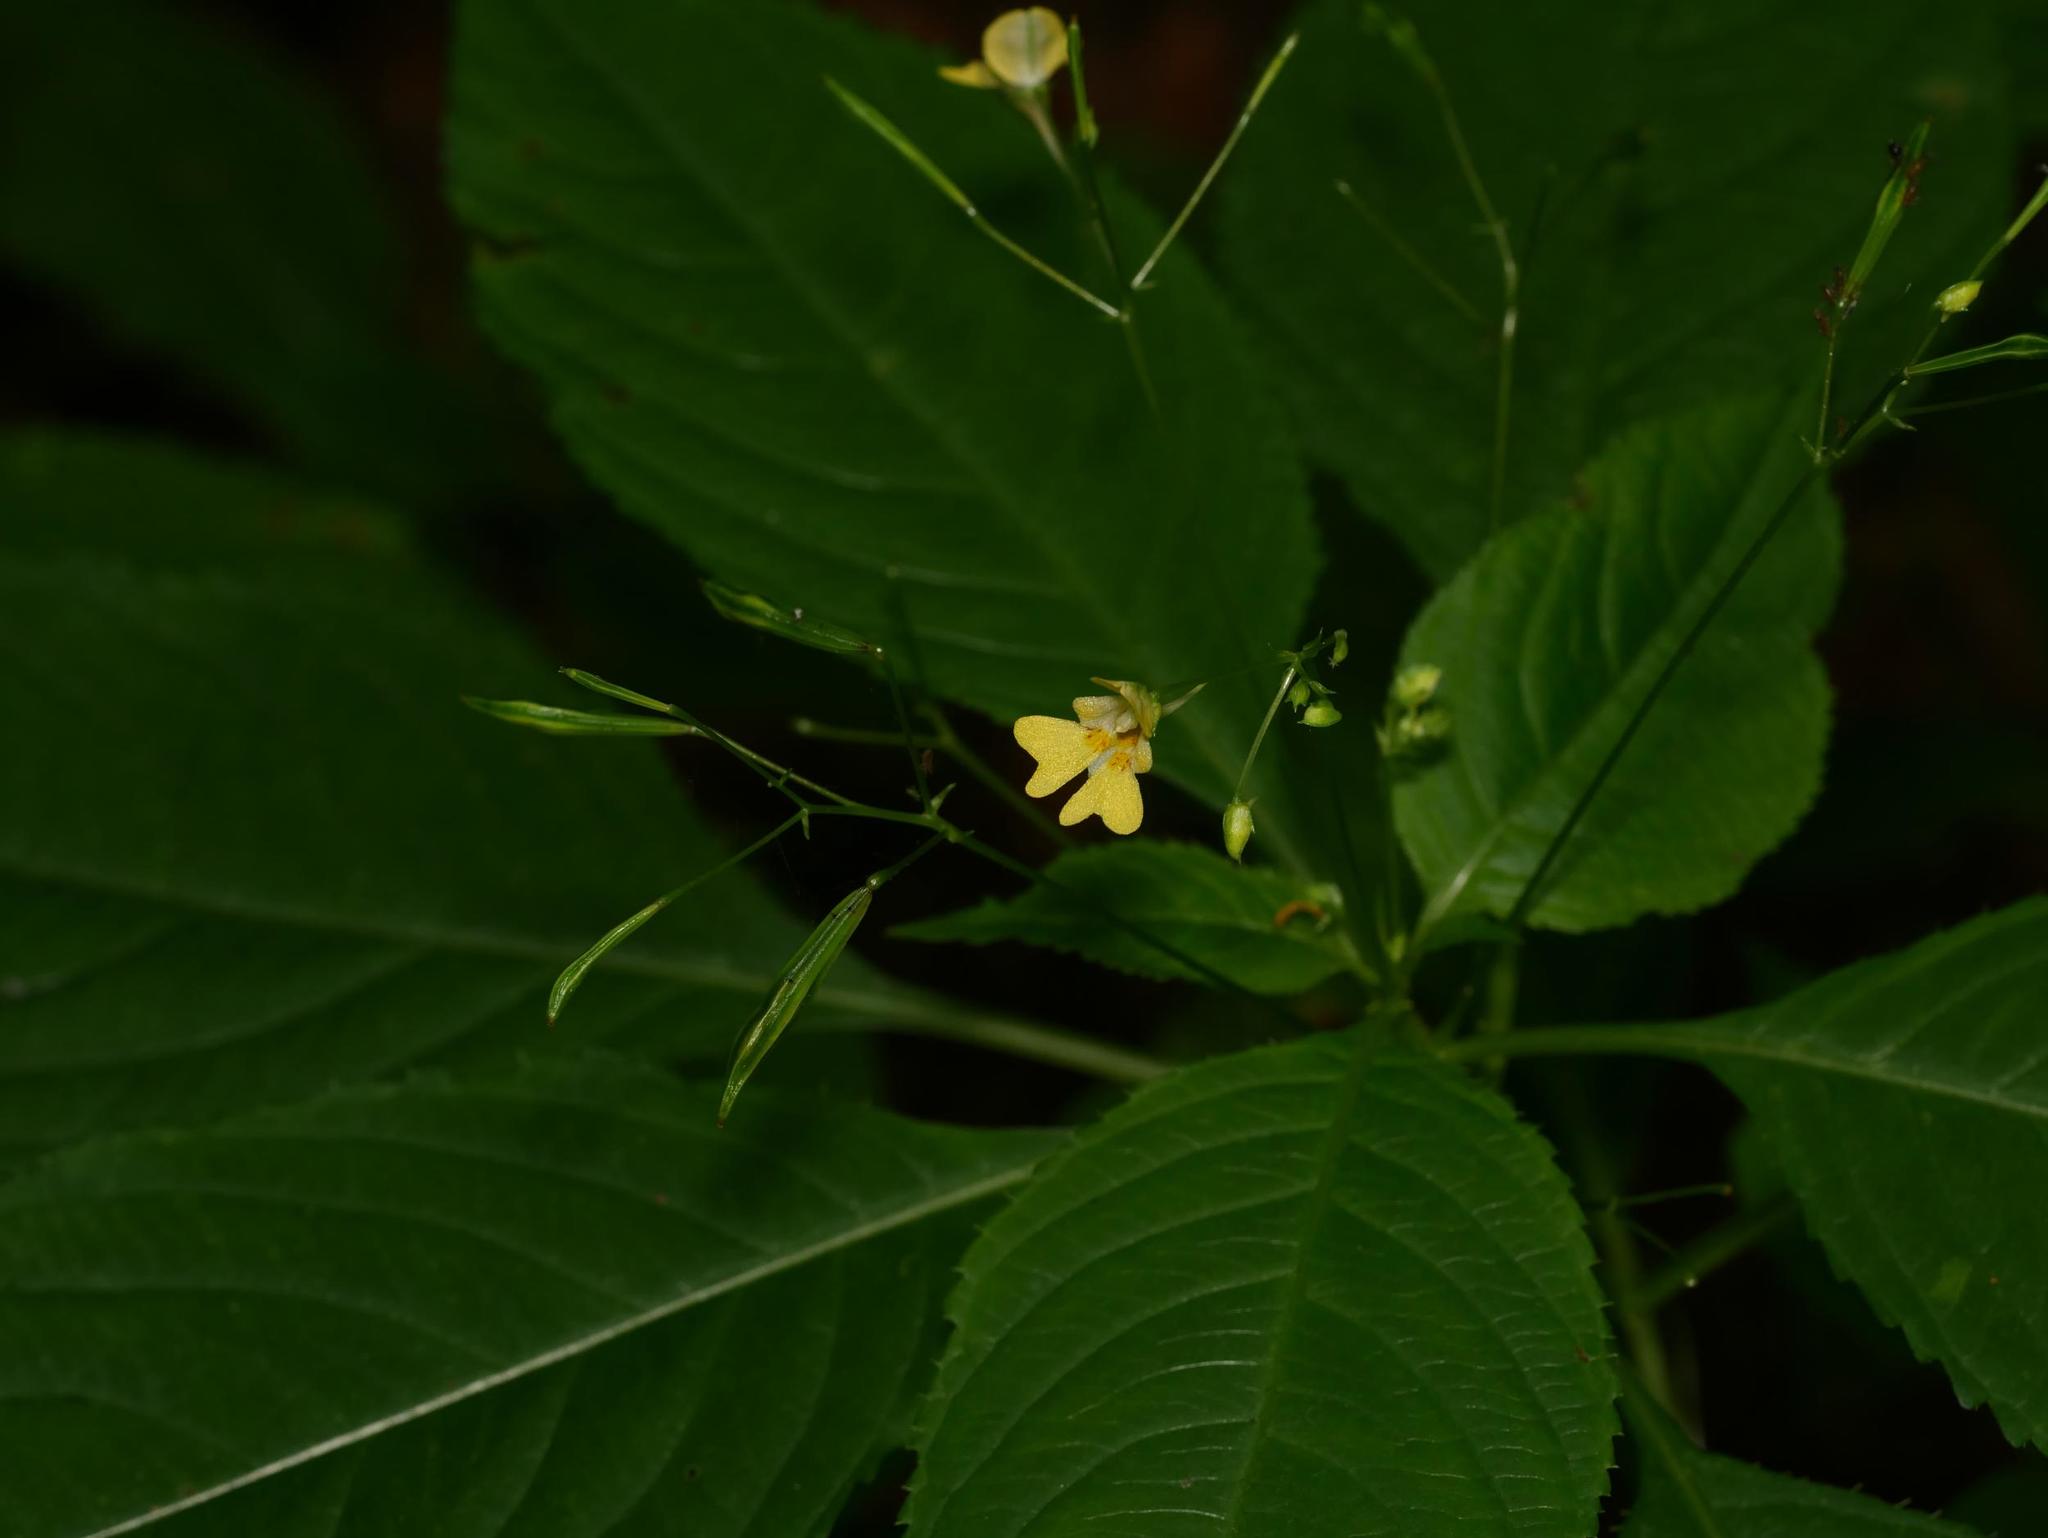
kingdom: Plantae
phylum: Tracheophyta
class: Magnoliopsida
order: Ericales
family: Balsaminaceae
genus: Impatiens
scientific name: Impatiens parviflora
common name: Small balsam
